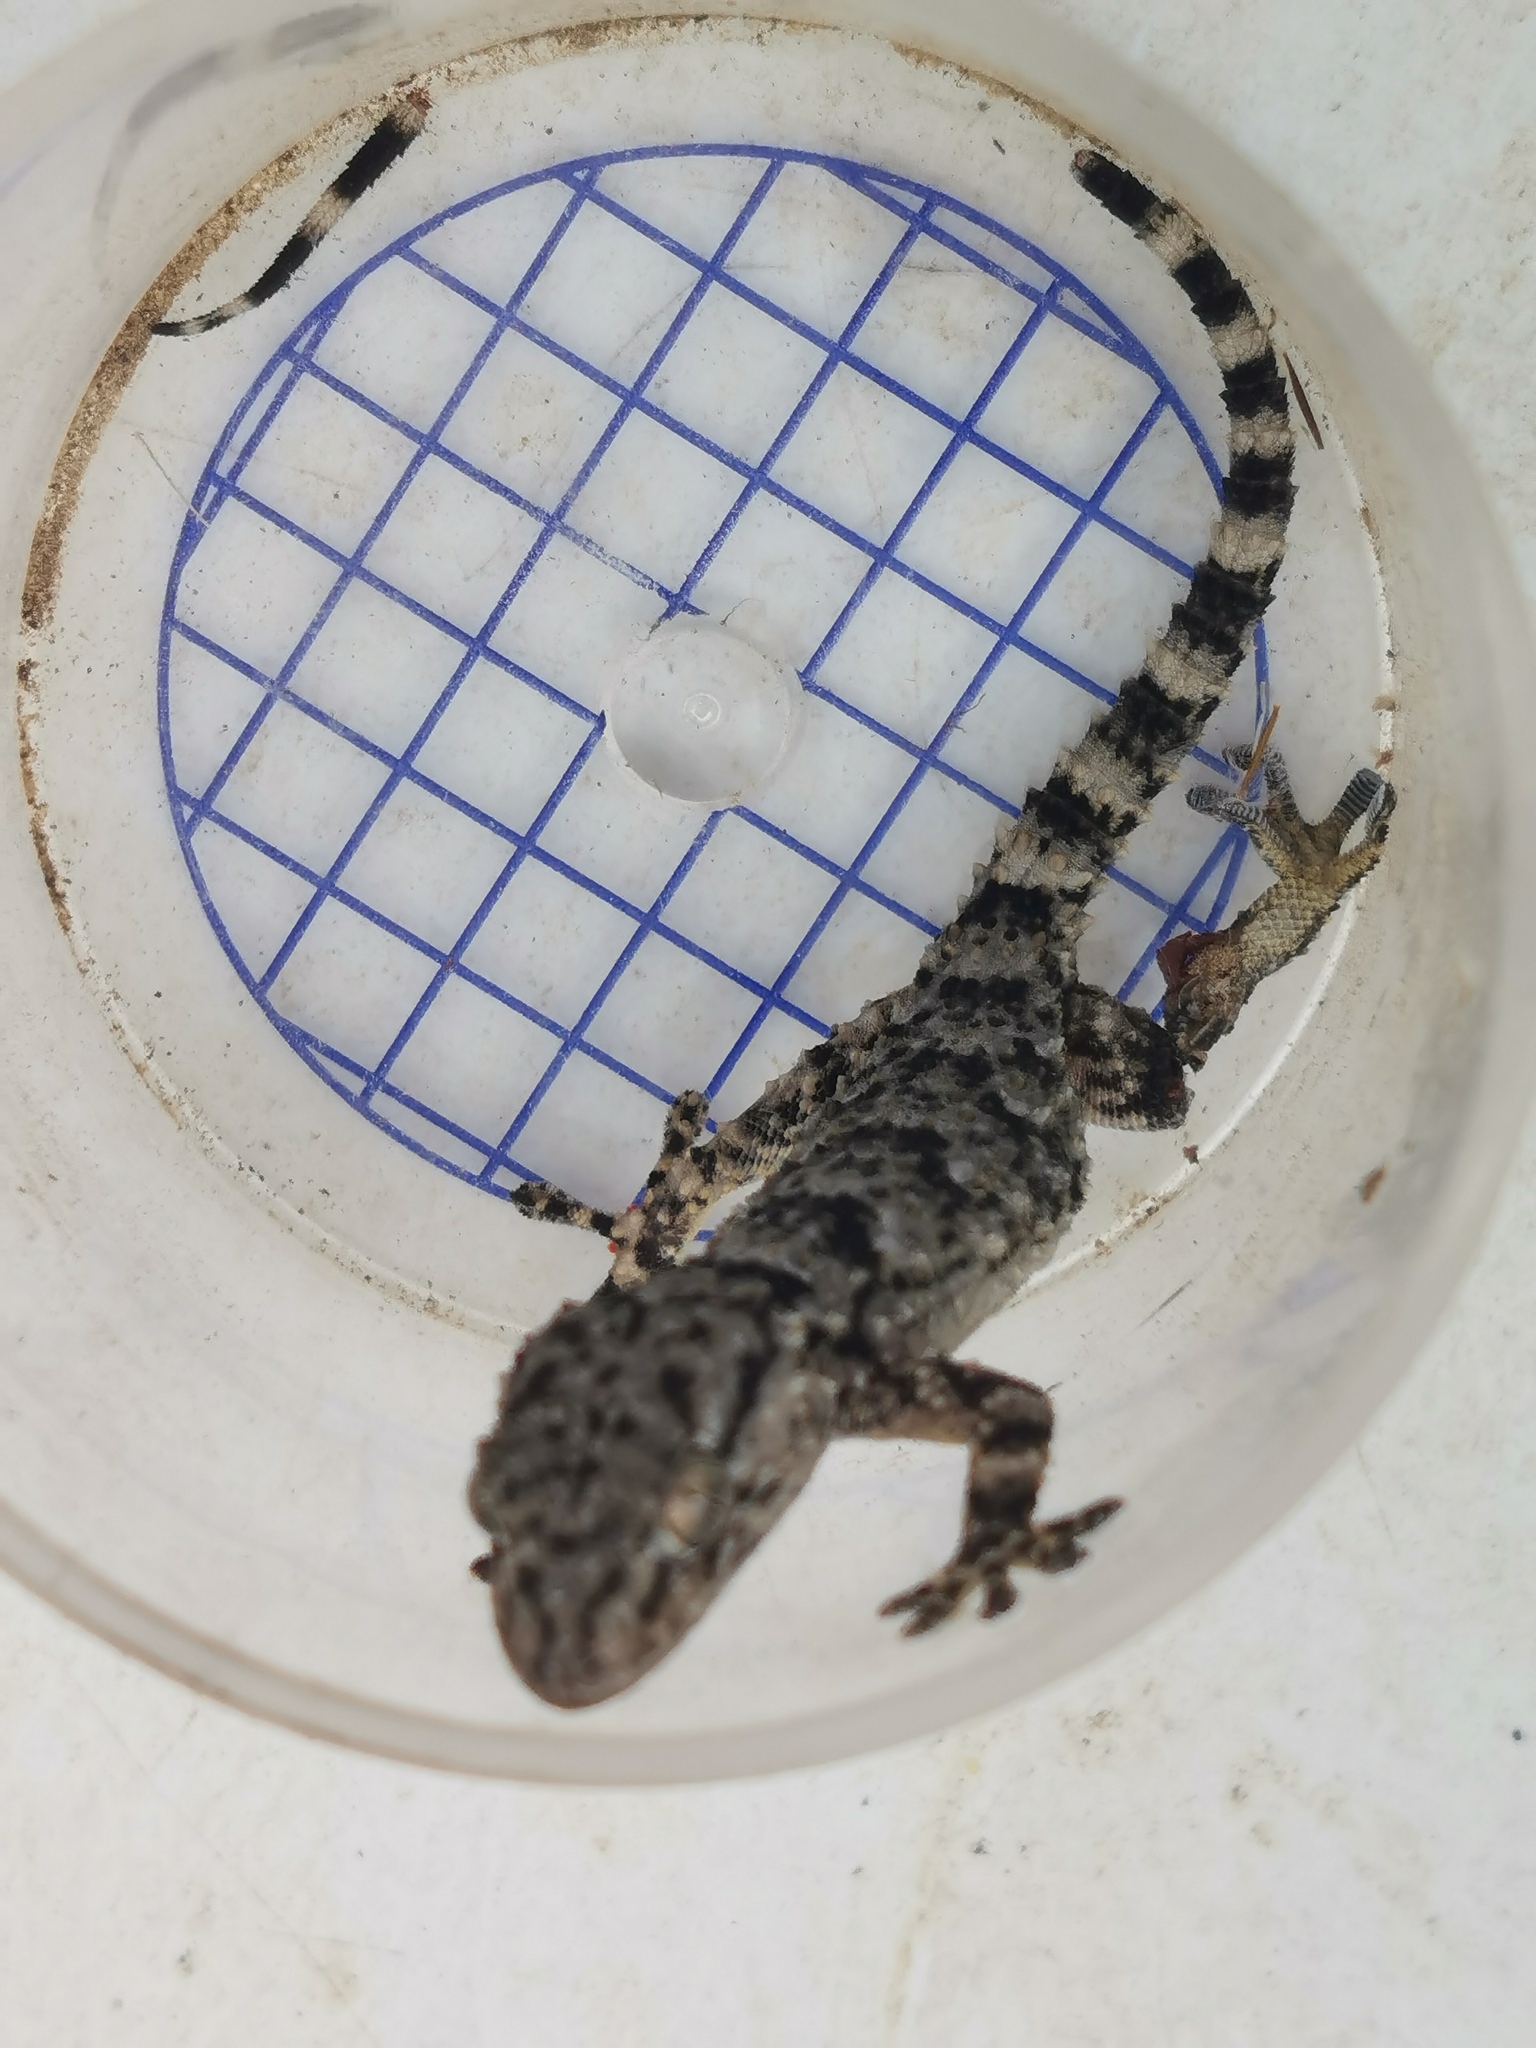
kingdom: Animalia
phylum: Chordata
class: Squamata
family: Phyllodactylidae
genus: Tarentola
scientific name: Tarentola mauritanica
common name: Moorish gecko
